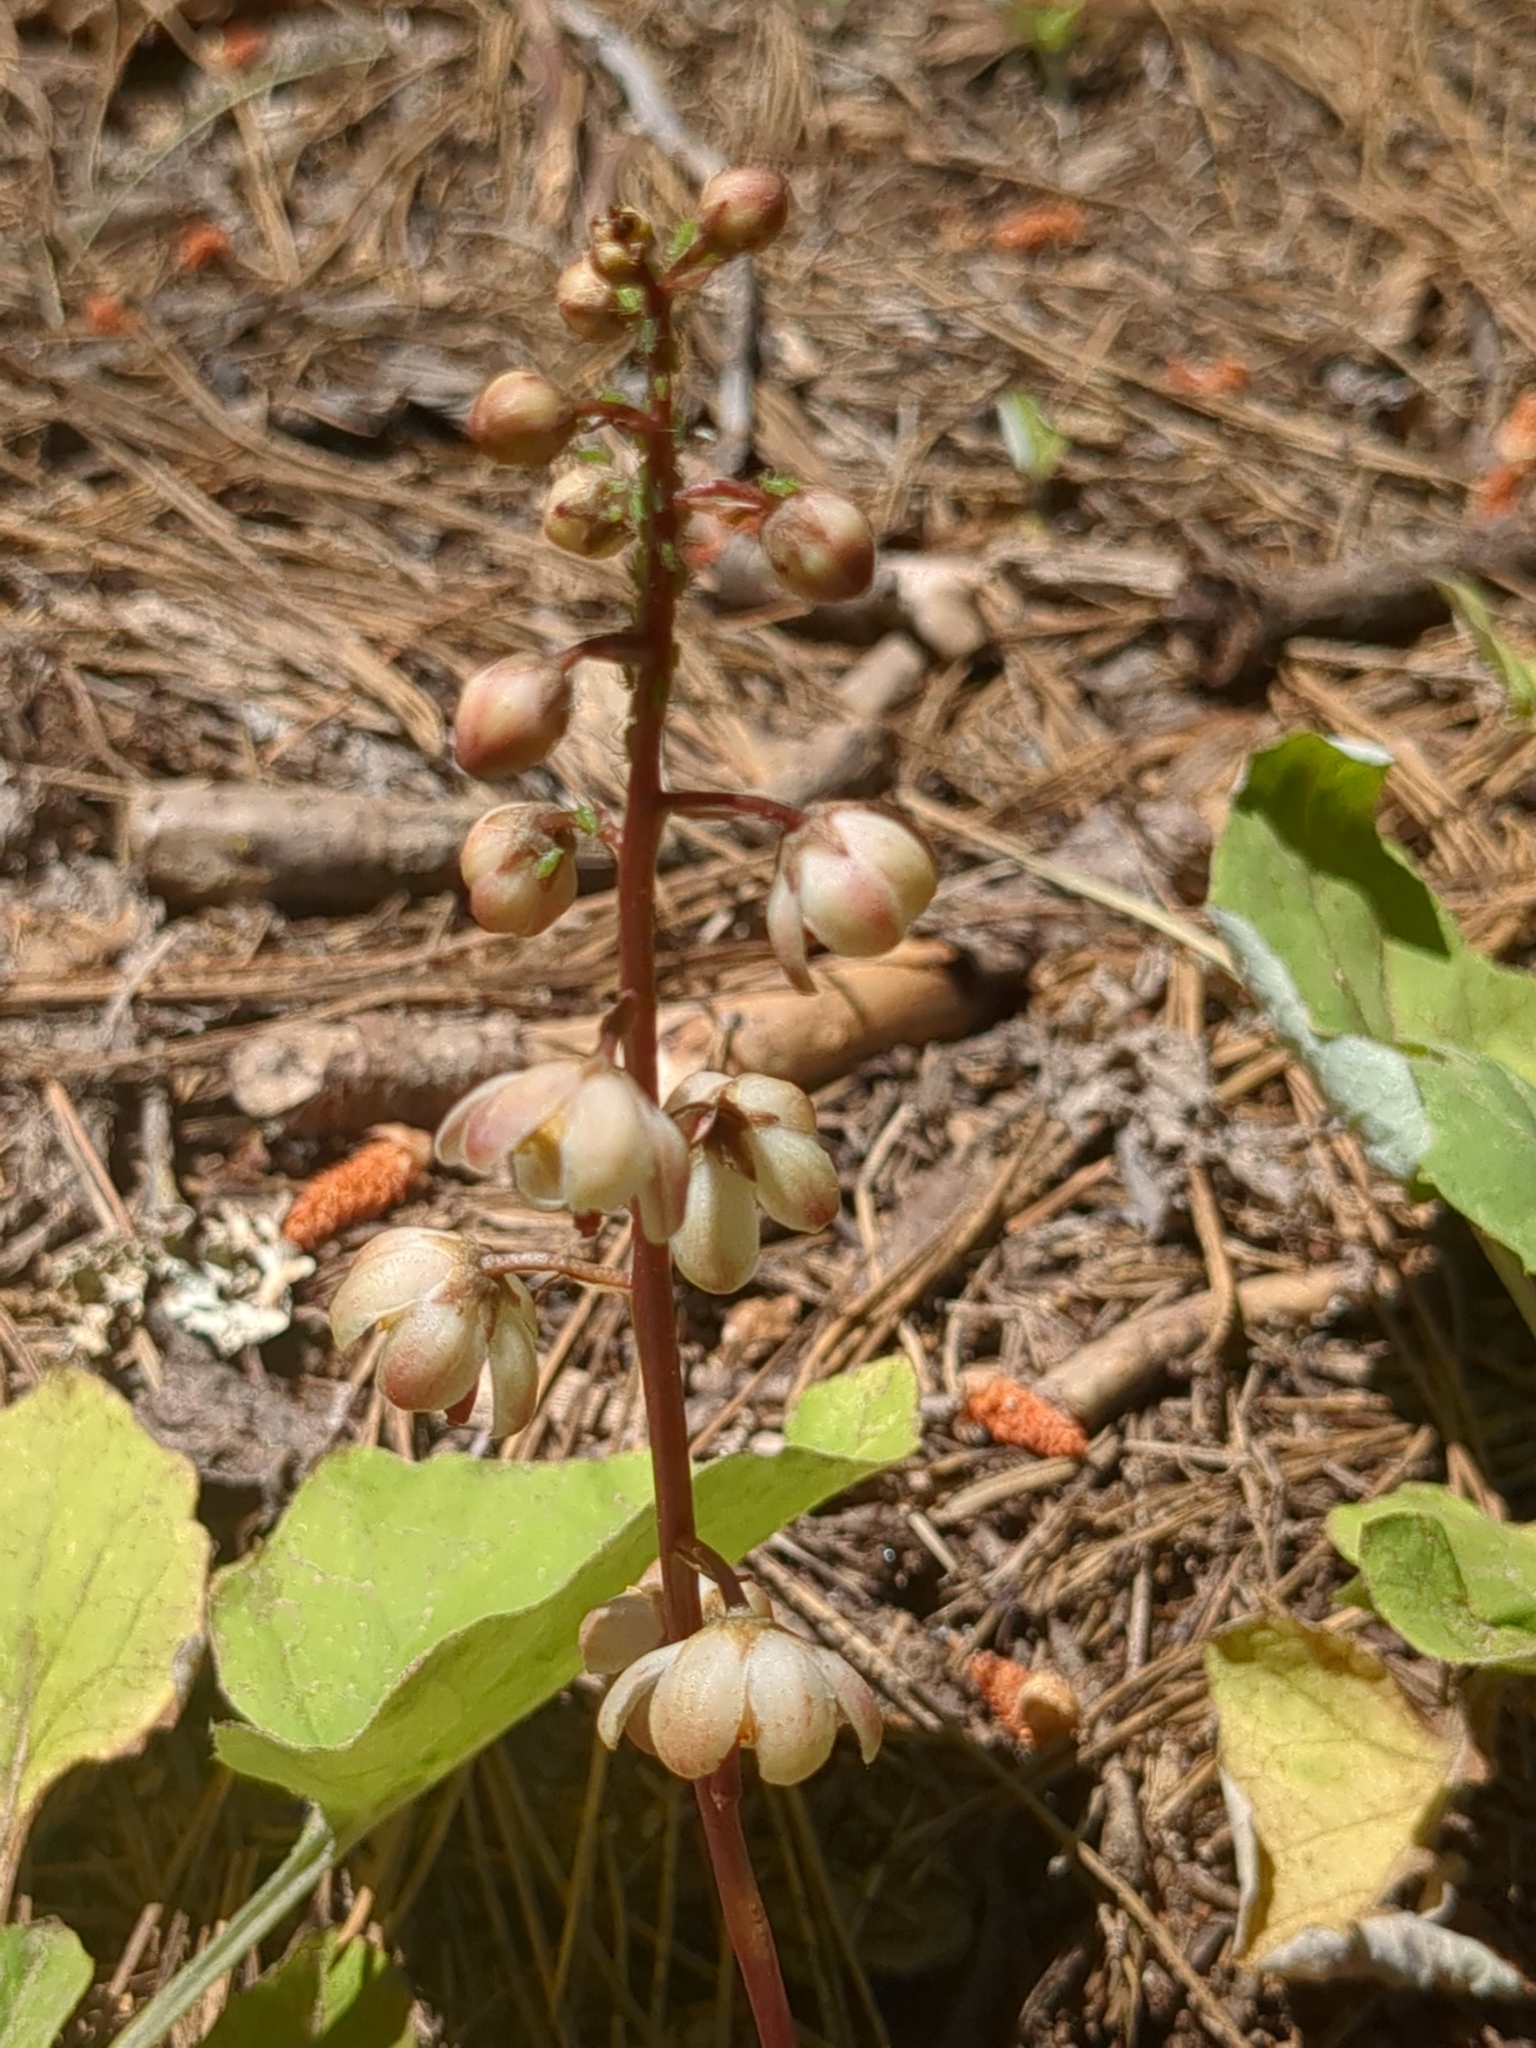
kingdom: Plantae
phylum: Tracheophyta
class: Magnoliopsida
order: Ericales
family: Ericaceae
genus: Pyrola
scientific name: Pyrola aphylla
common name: Leafless wintergreen
